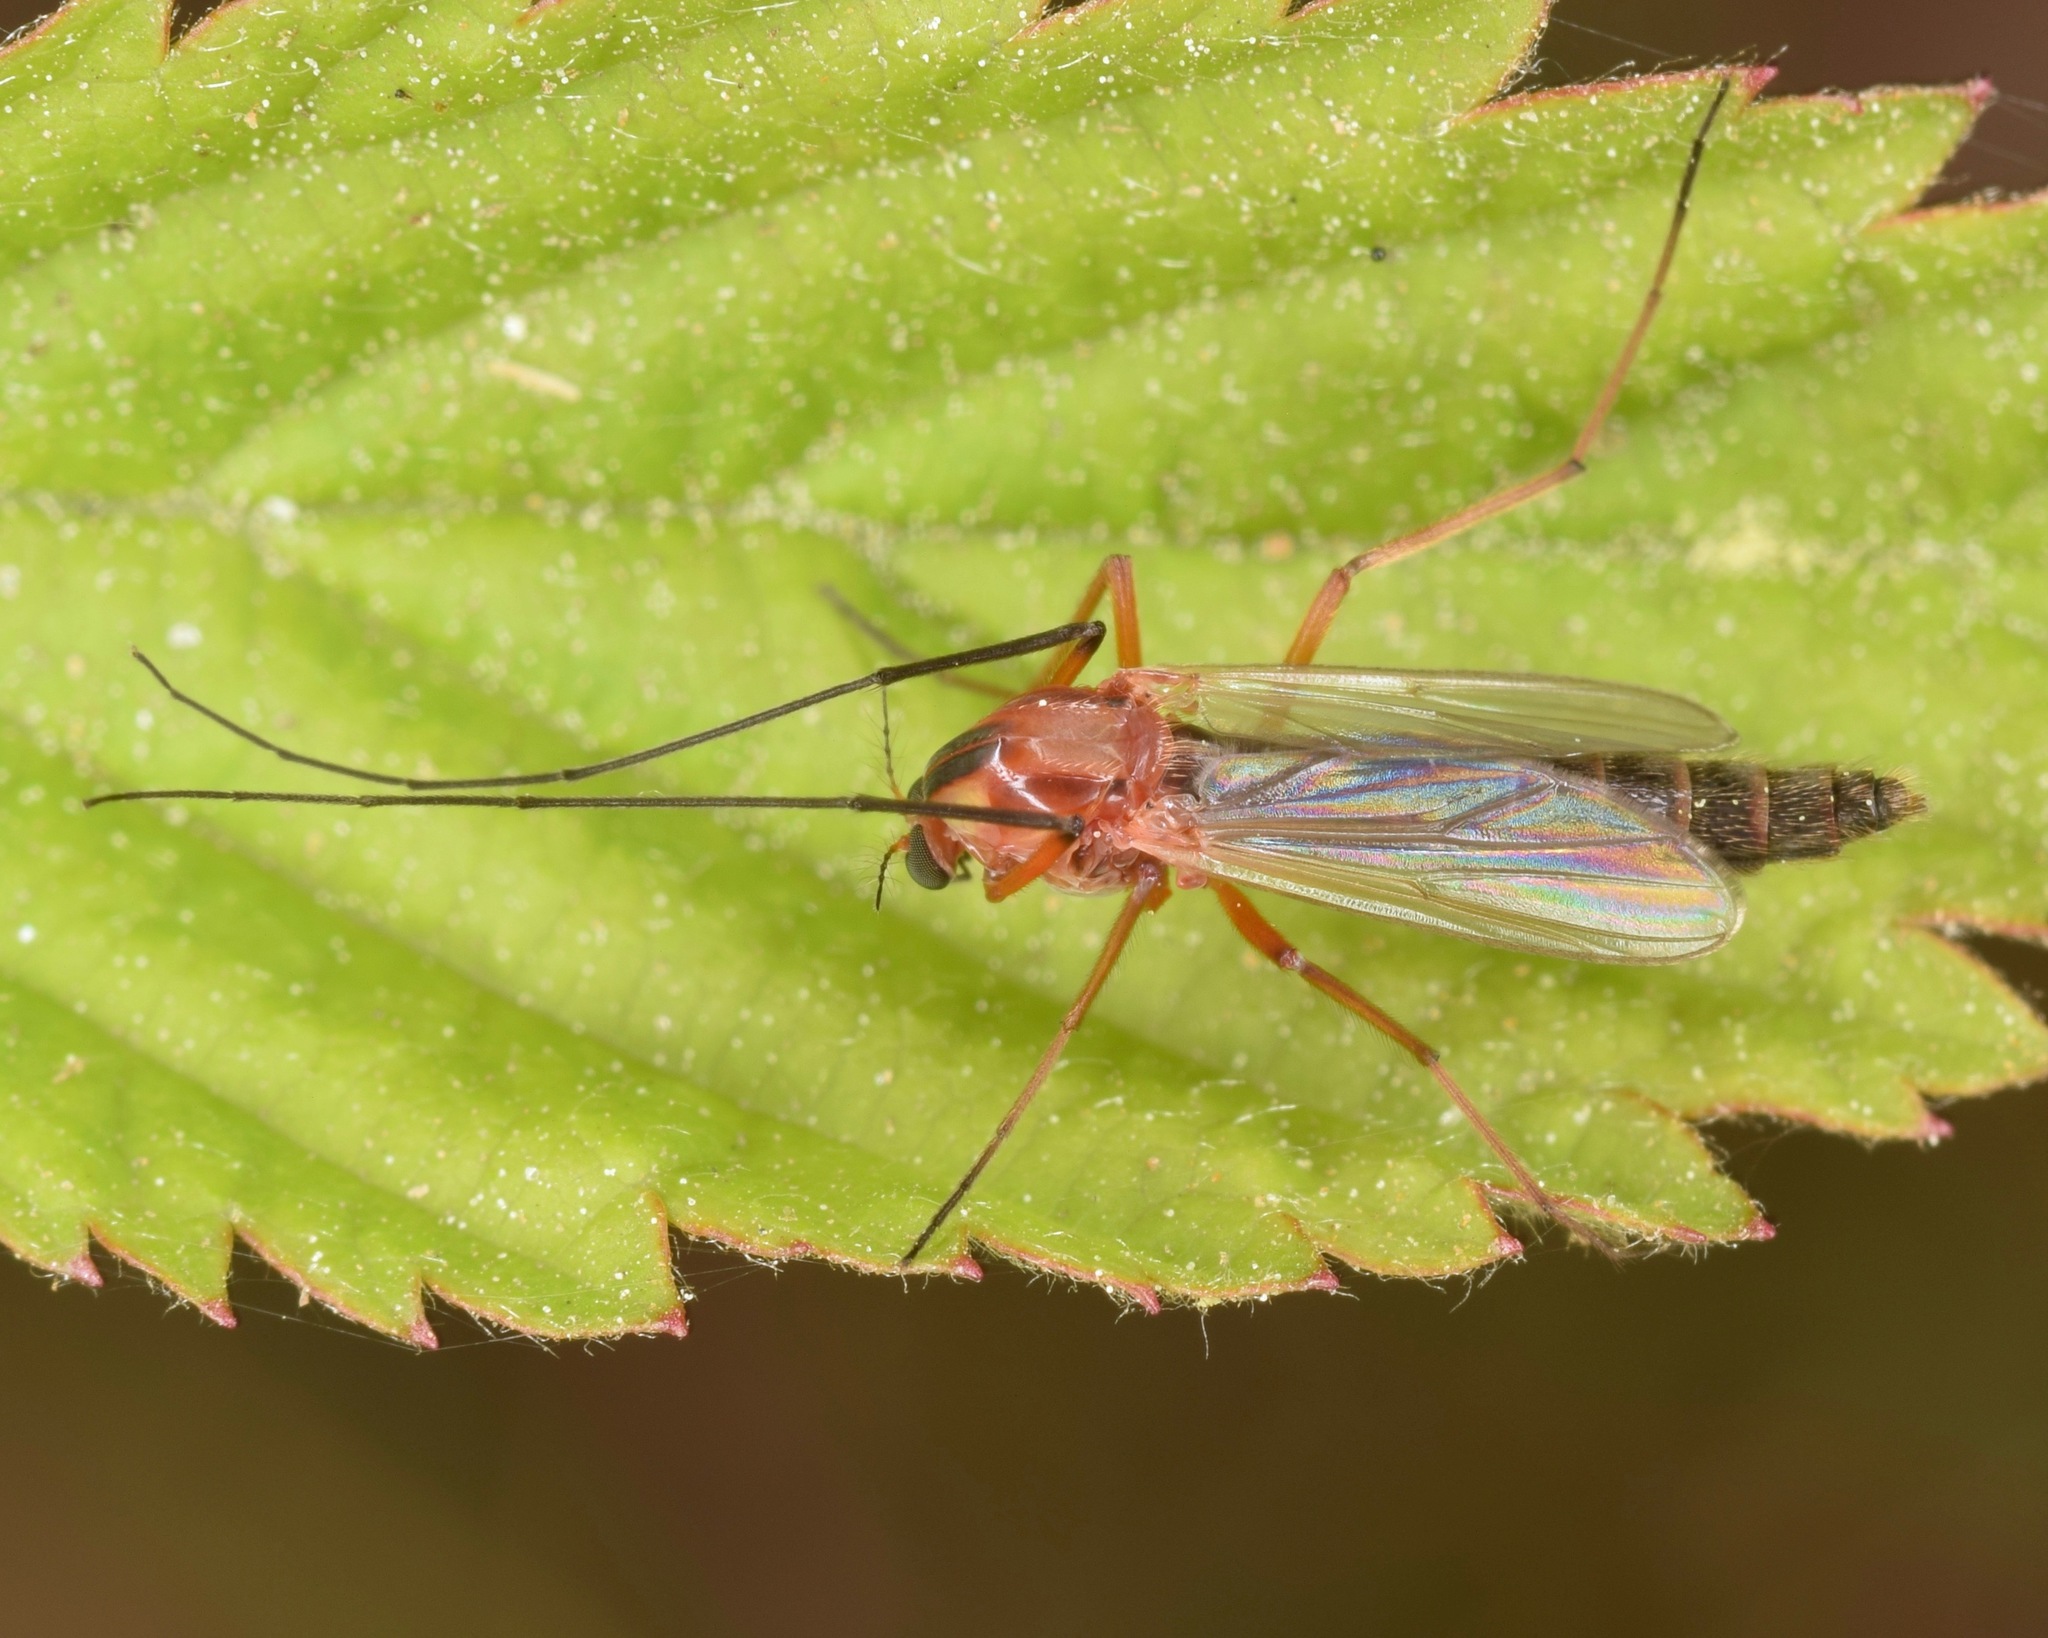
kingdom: Animalia
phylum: Arthropoda
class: Insecta
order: Diptera
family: Chironomidae
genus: Chironomus
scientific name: Chironomus ochreatus
